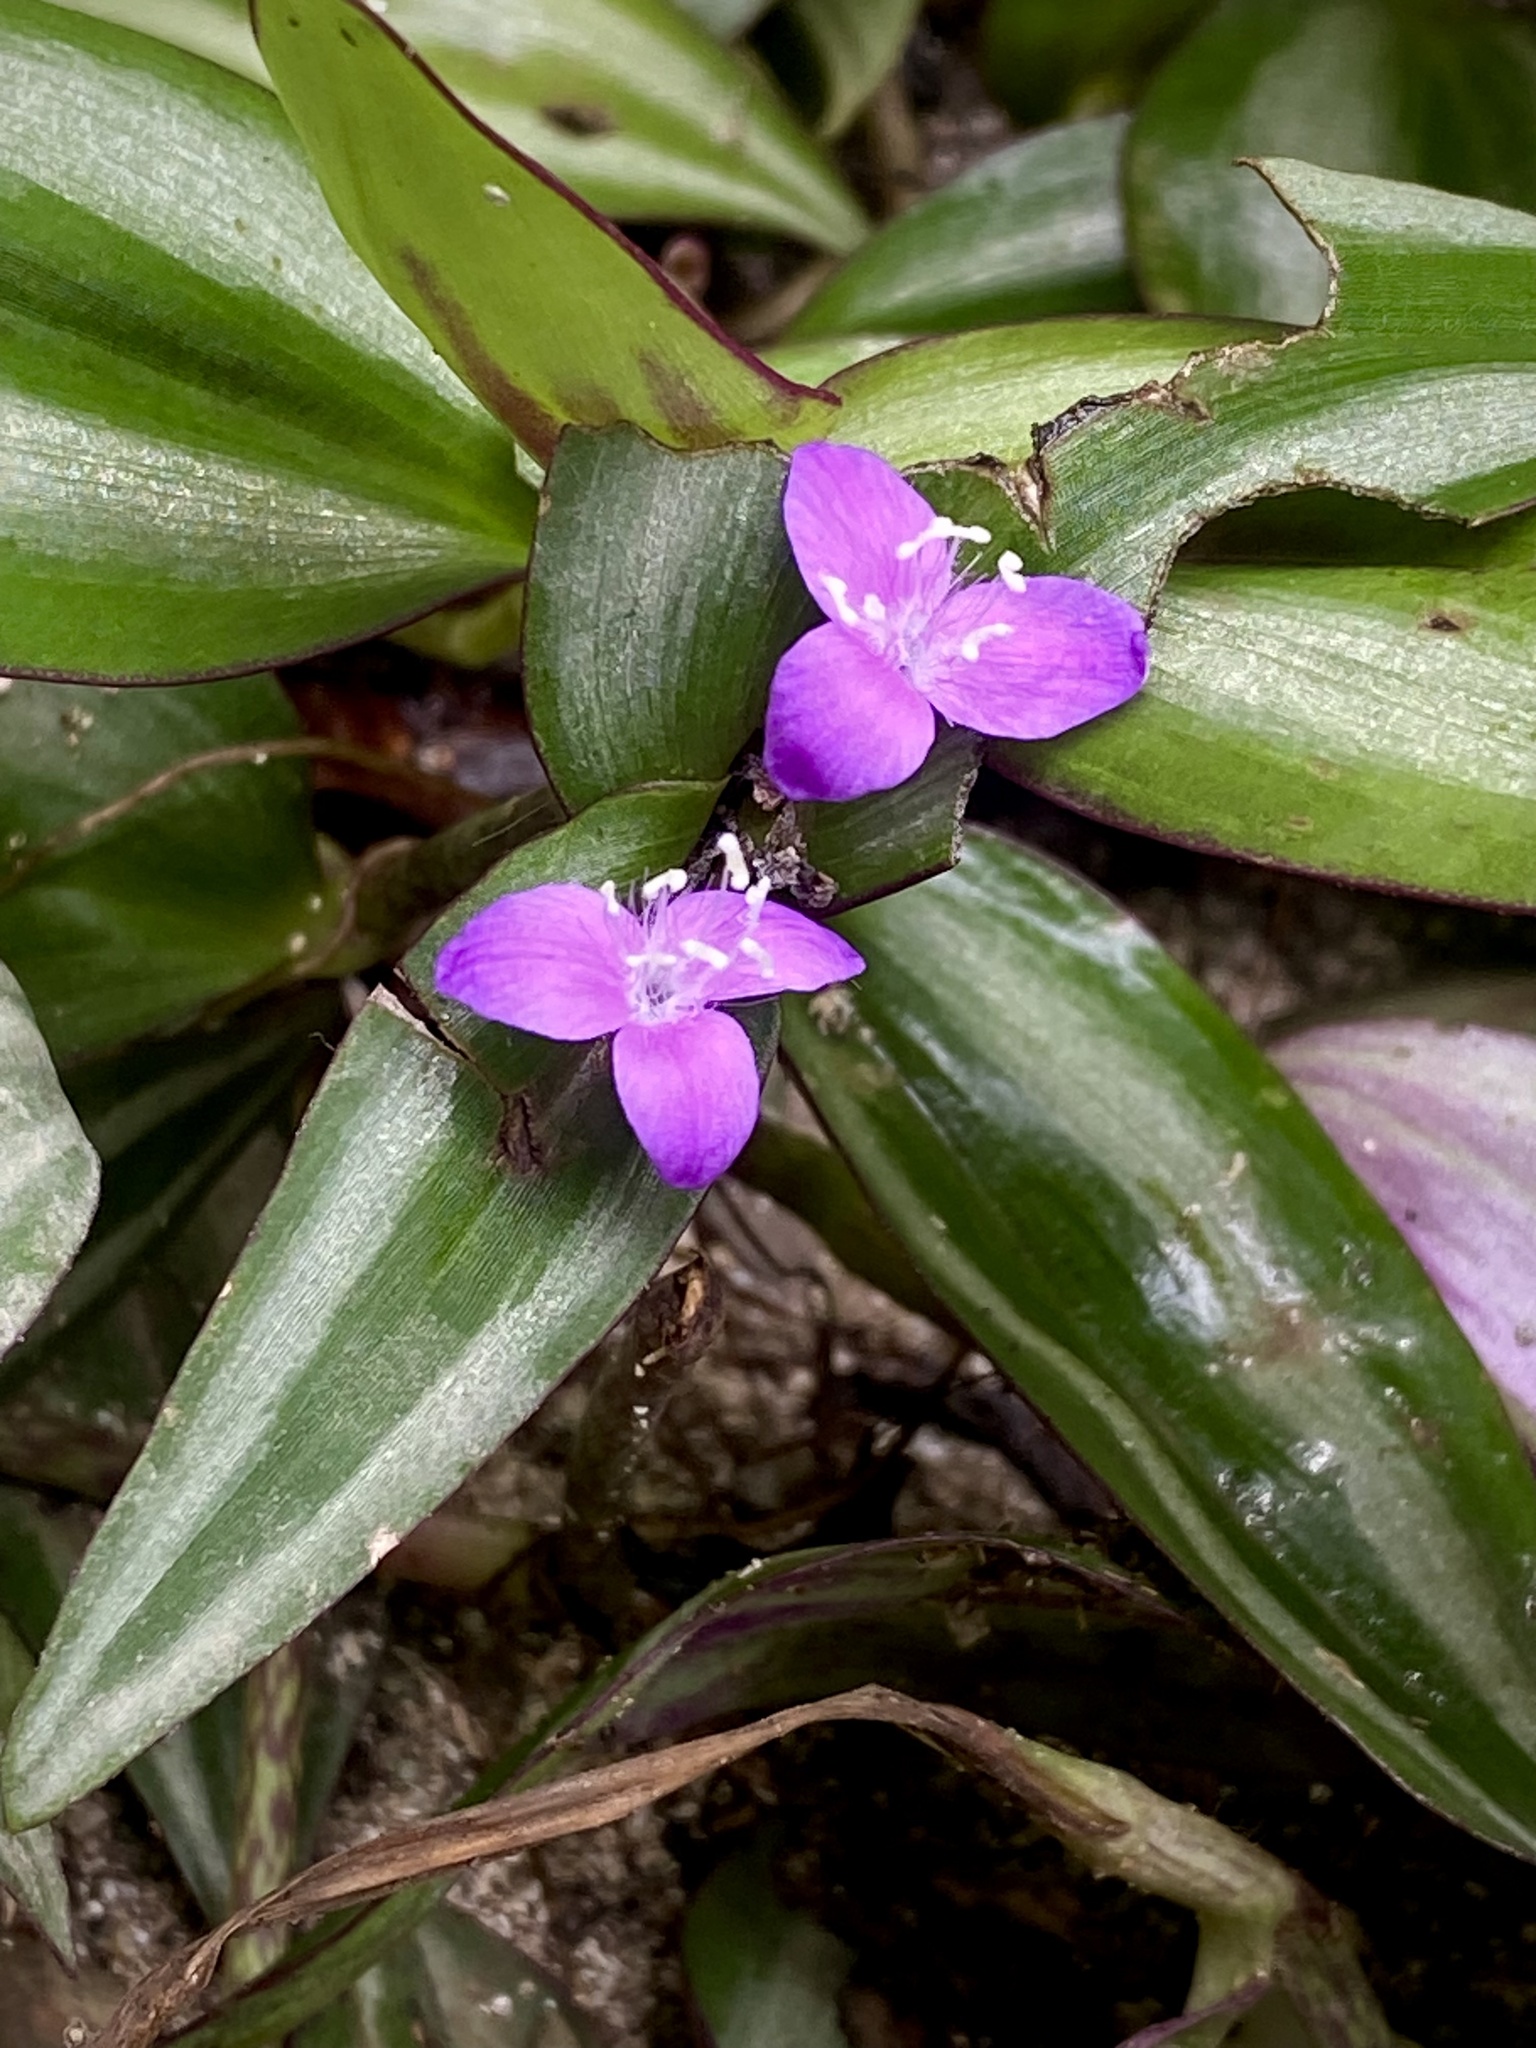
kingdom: Plantae
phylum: Tracheophyta
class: Liliopsida
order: Commelinales
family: Commelinaceae
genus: Tradescantia
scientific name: Tradescantia zebrina
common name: Inchplant
